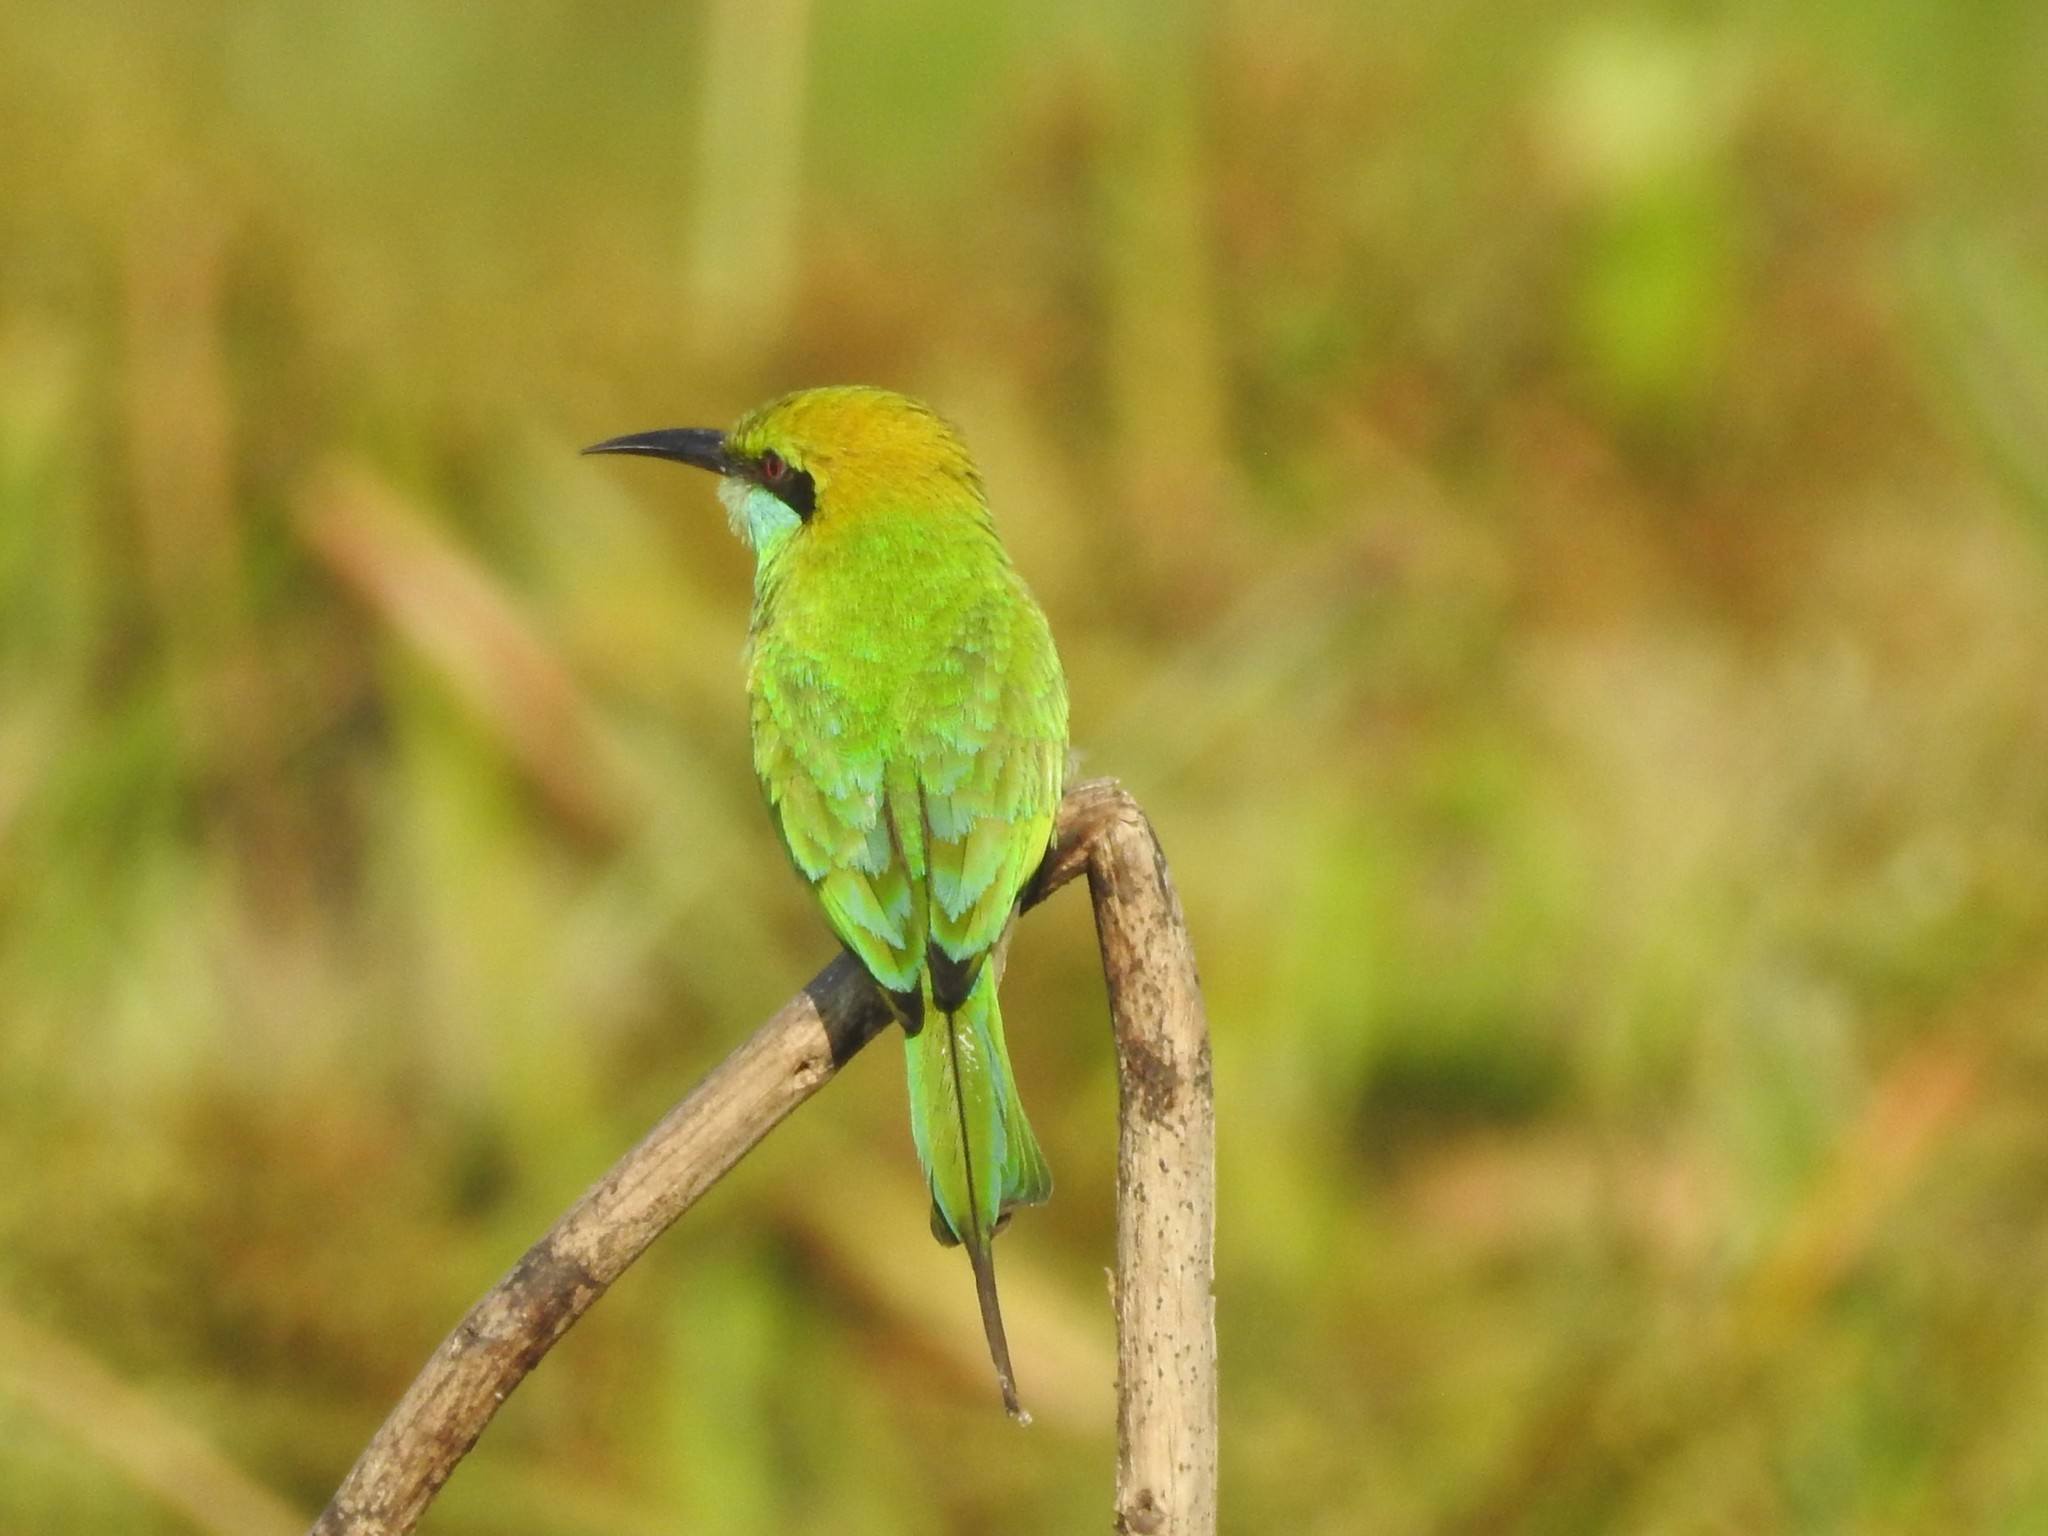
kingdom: Animalia
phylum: Chordata
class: Aves
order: Coraciiformes
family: Meropidae
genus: Merops
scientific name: Merops orientalis
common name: Green bee-eater
